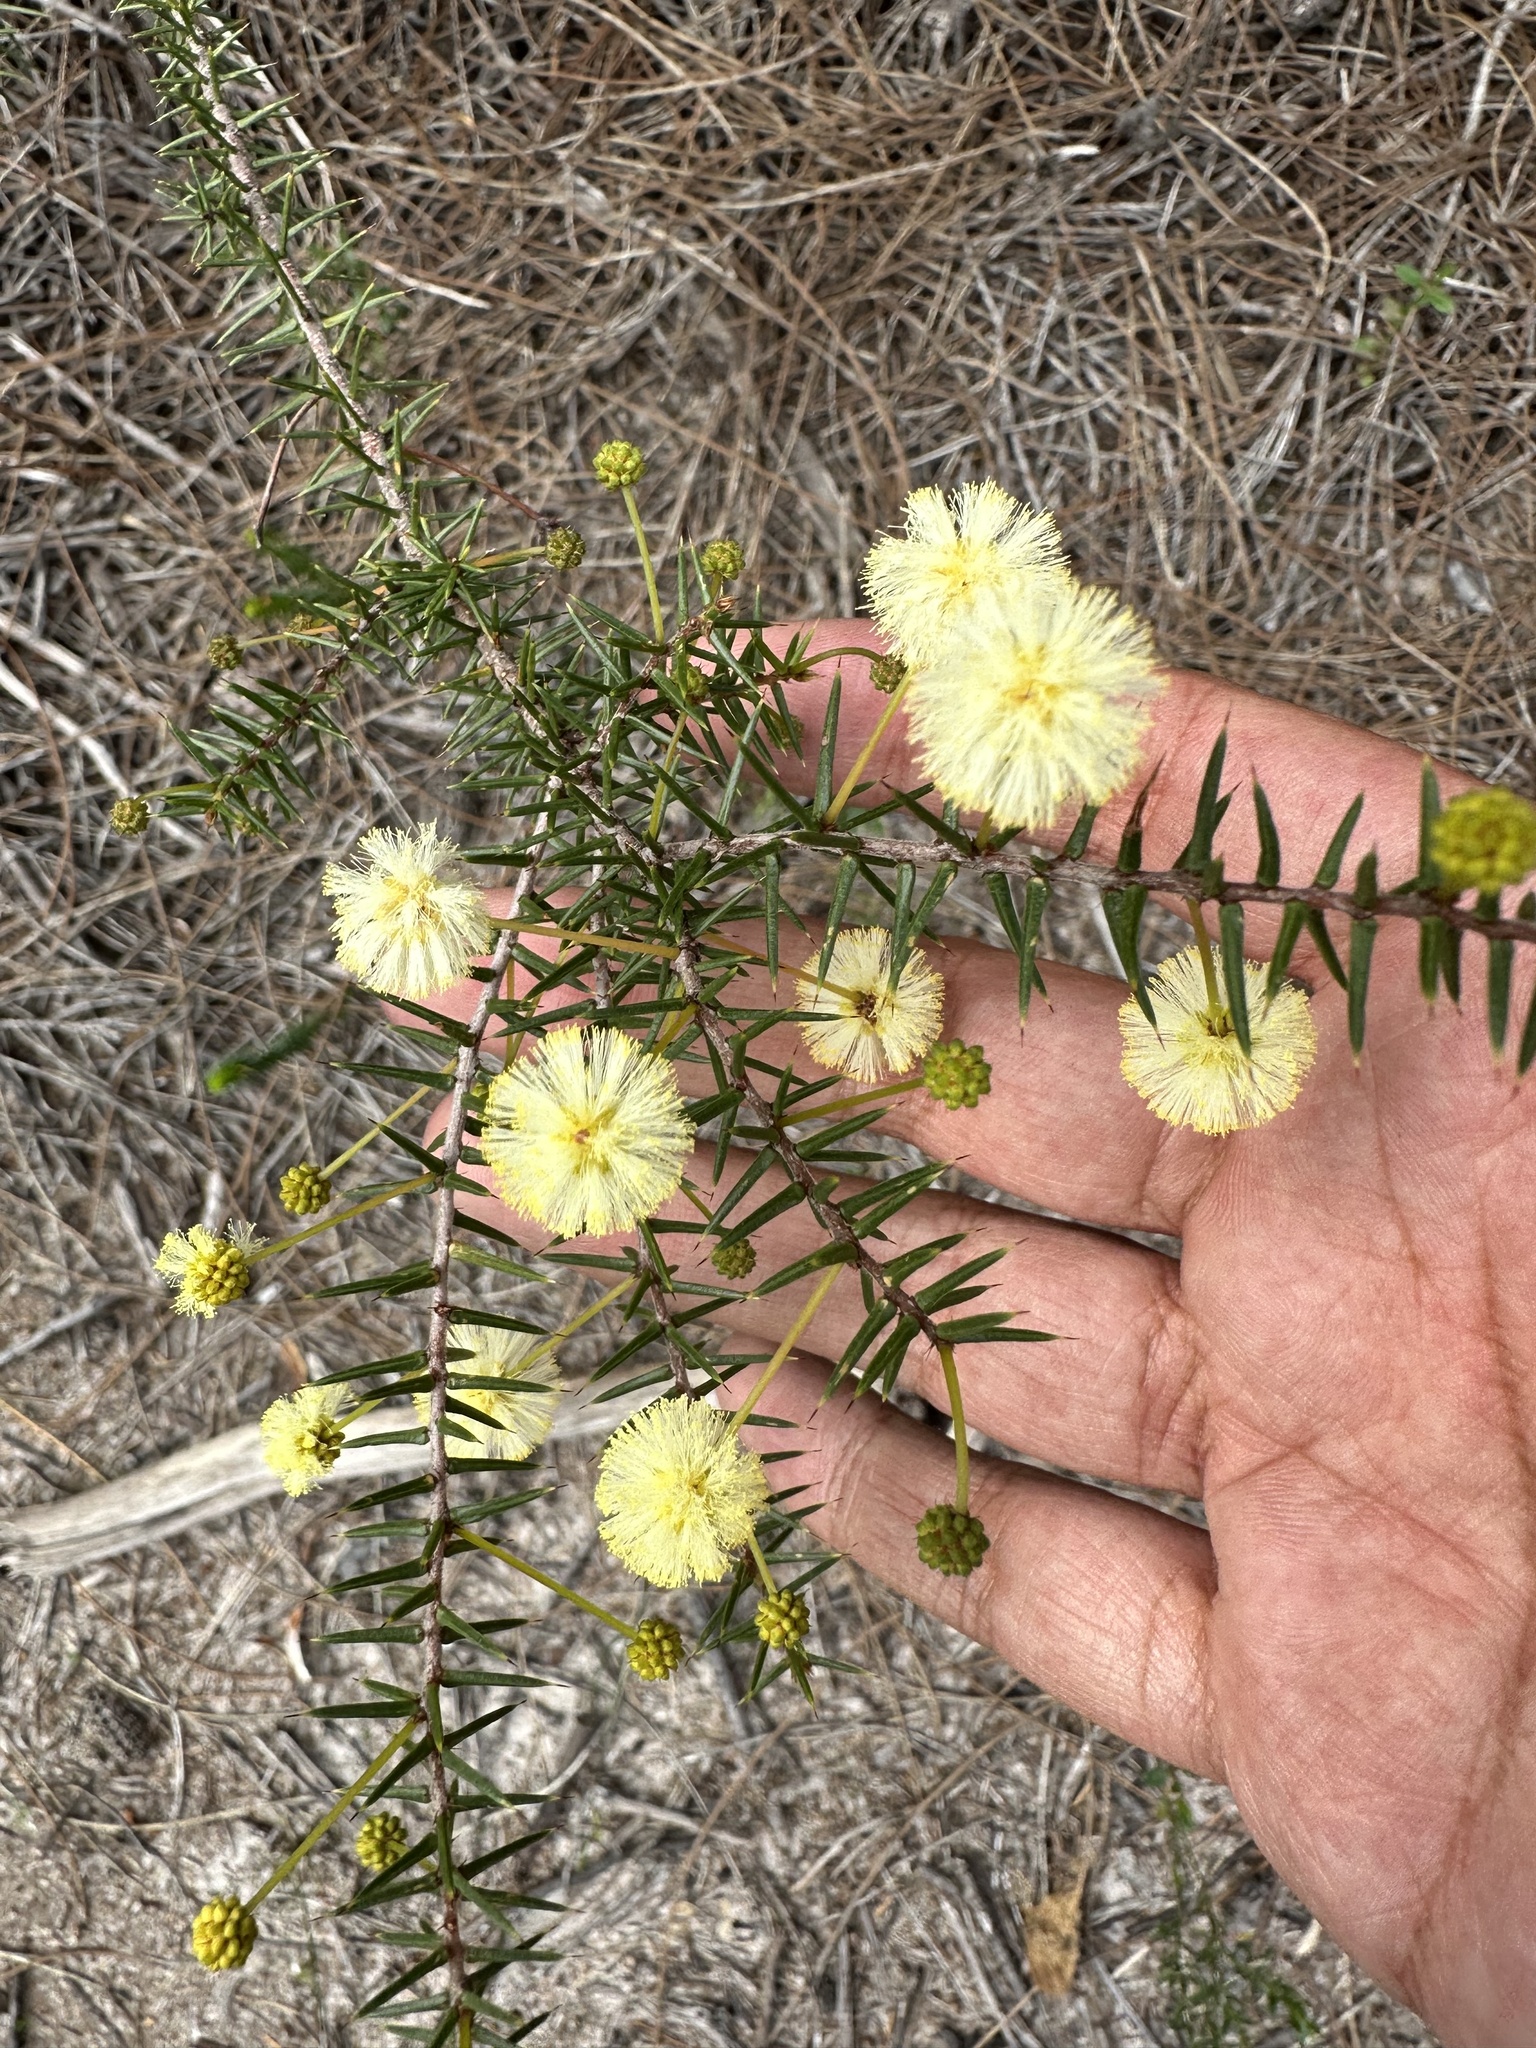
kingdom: Plantae
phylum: Tracheophyta
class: Magnoliopsida
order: Fabales
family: Fabaceae
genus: Acacia
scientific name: Acacia ulicifolia
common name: Juniper wattle
